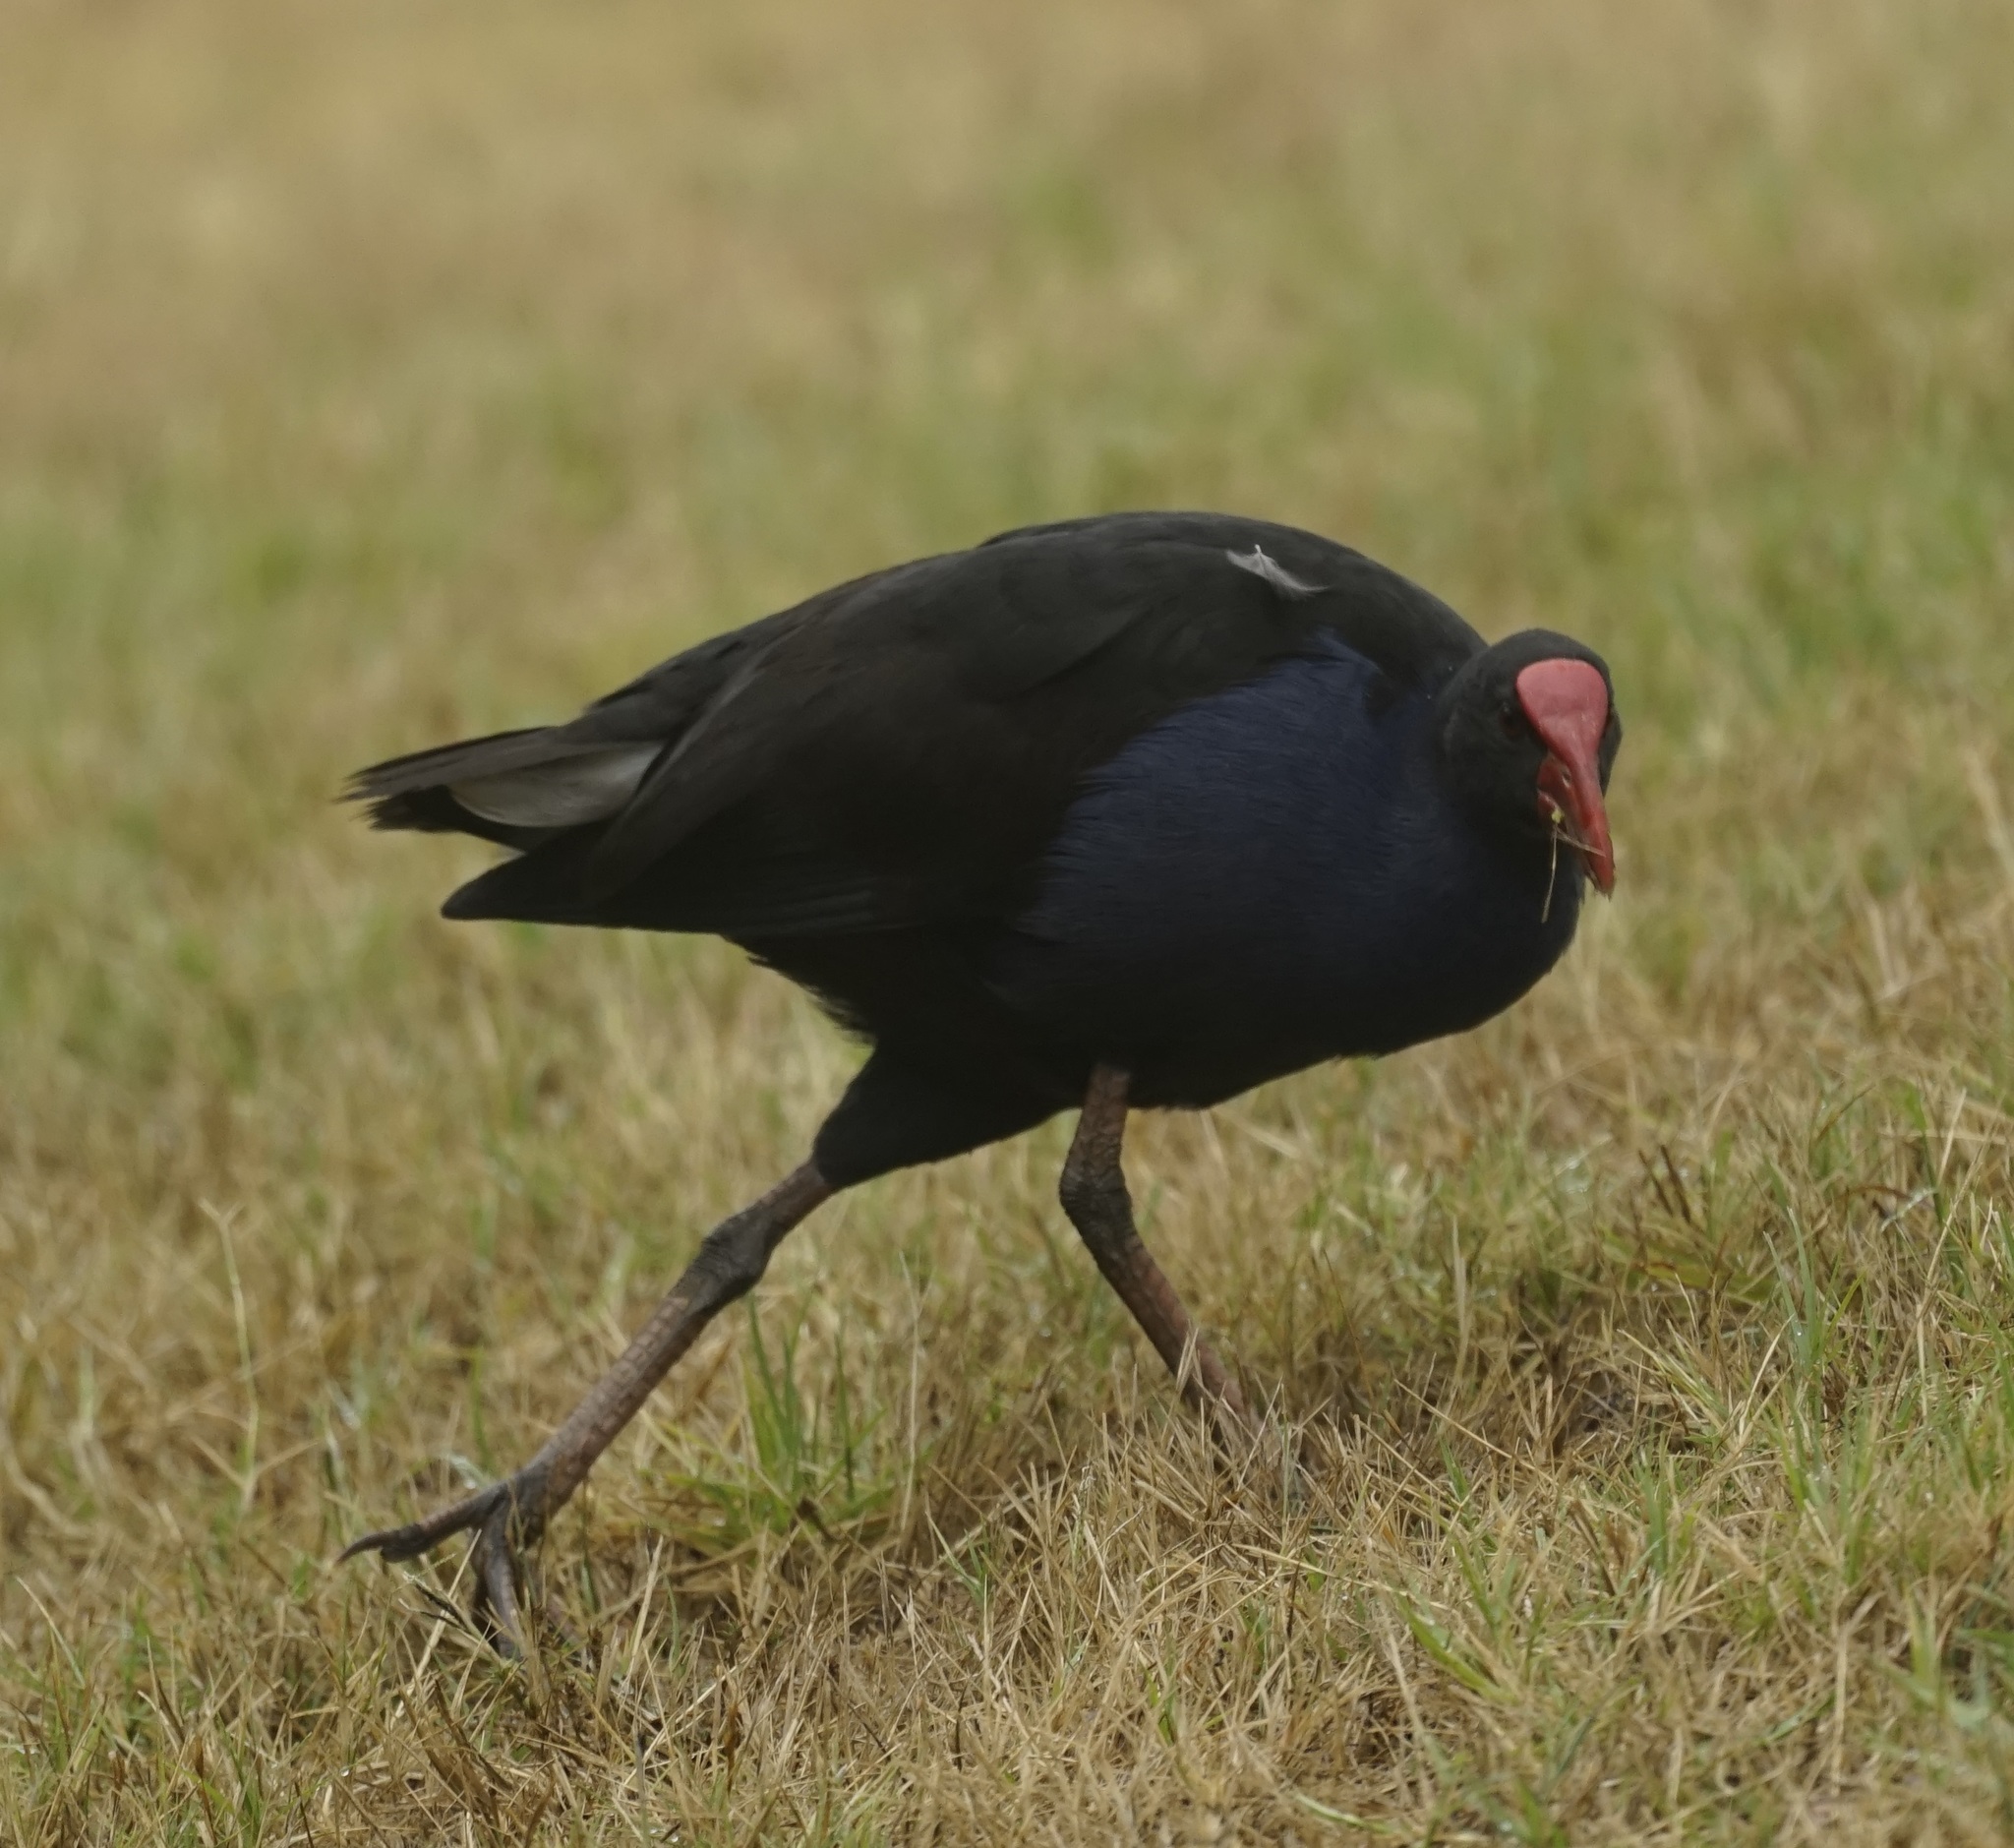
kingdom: Animalia
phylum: Chordata
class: Aves
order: Gruiformes
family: Rallidae
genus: Porphyrio
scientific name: Porphyrio melanotus
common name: Australasian swamphen
